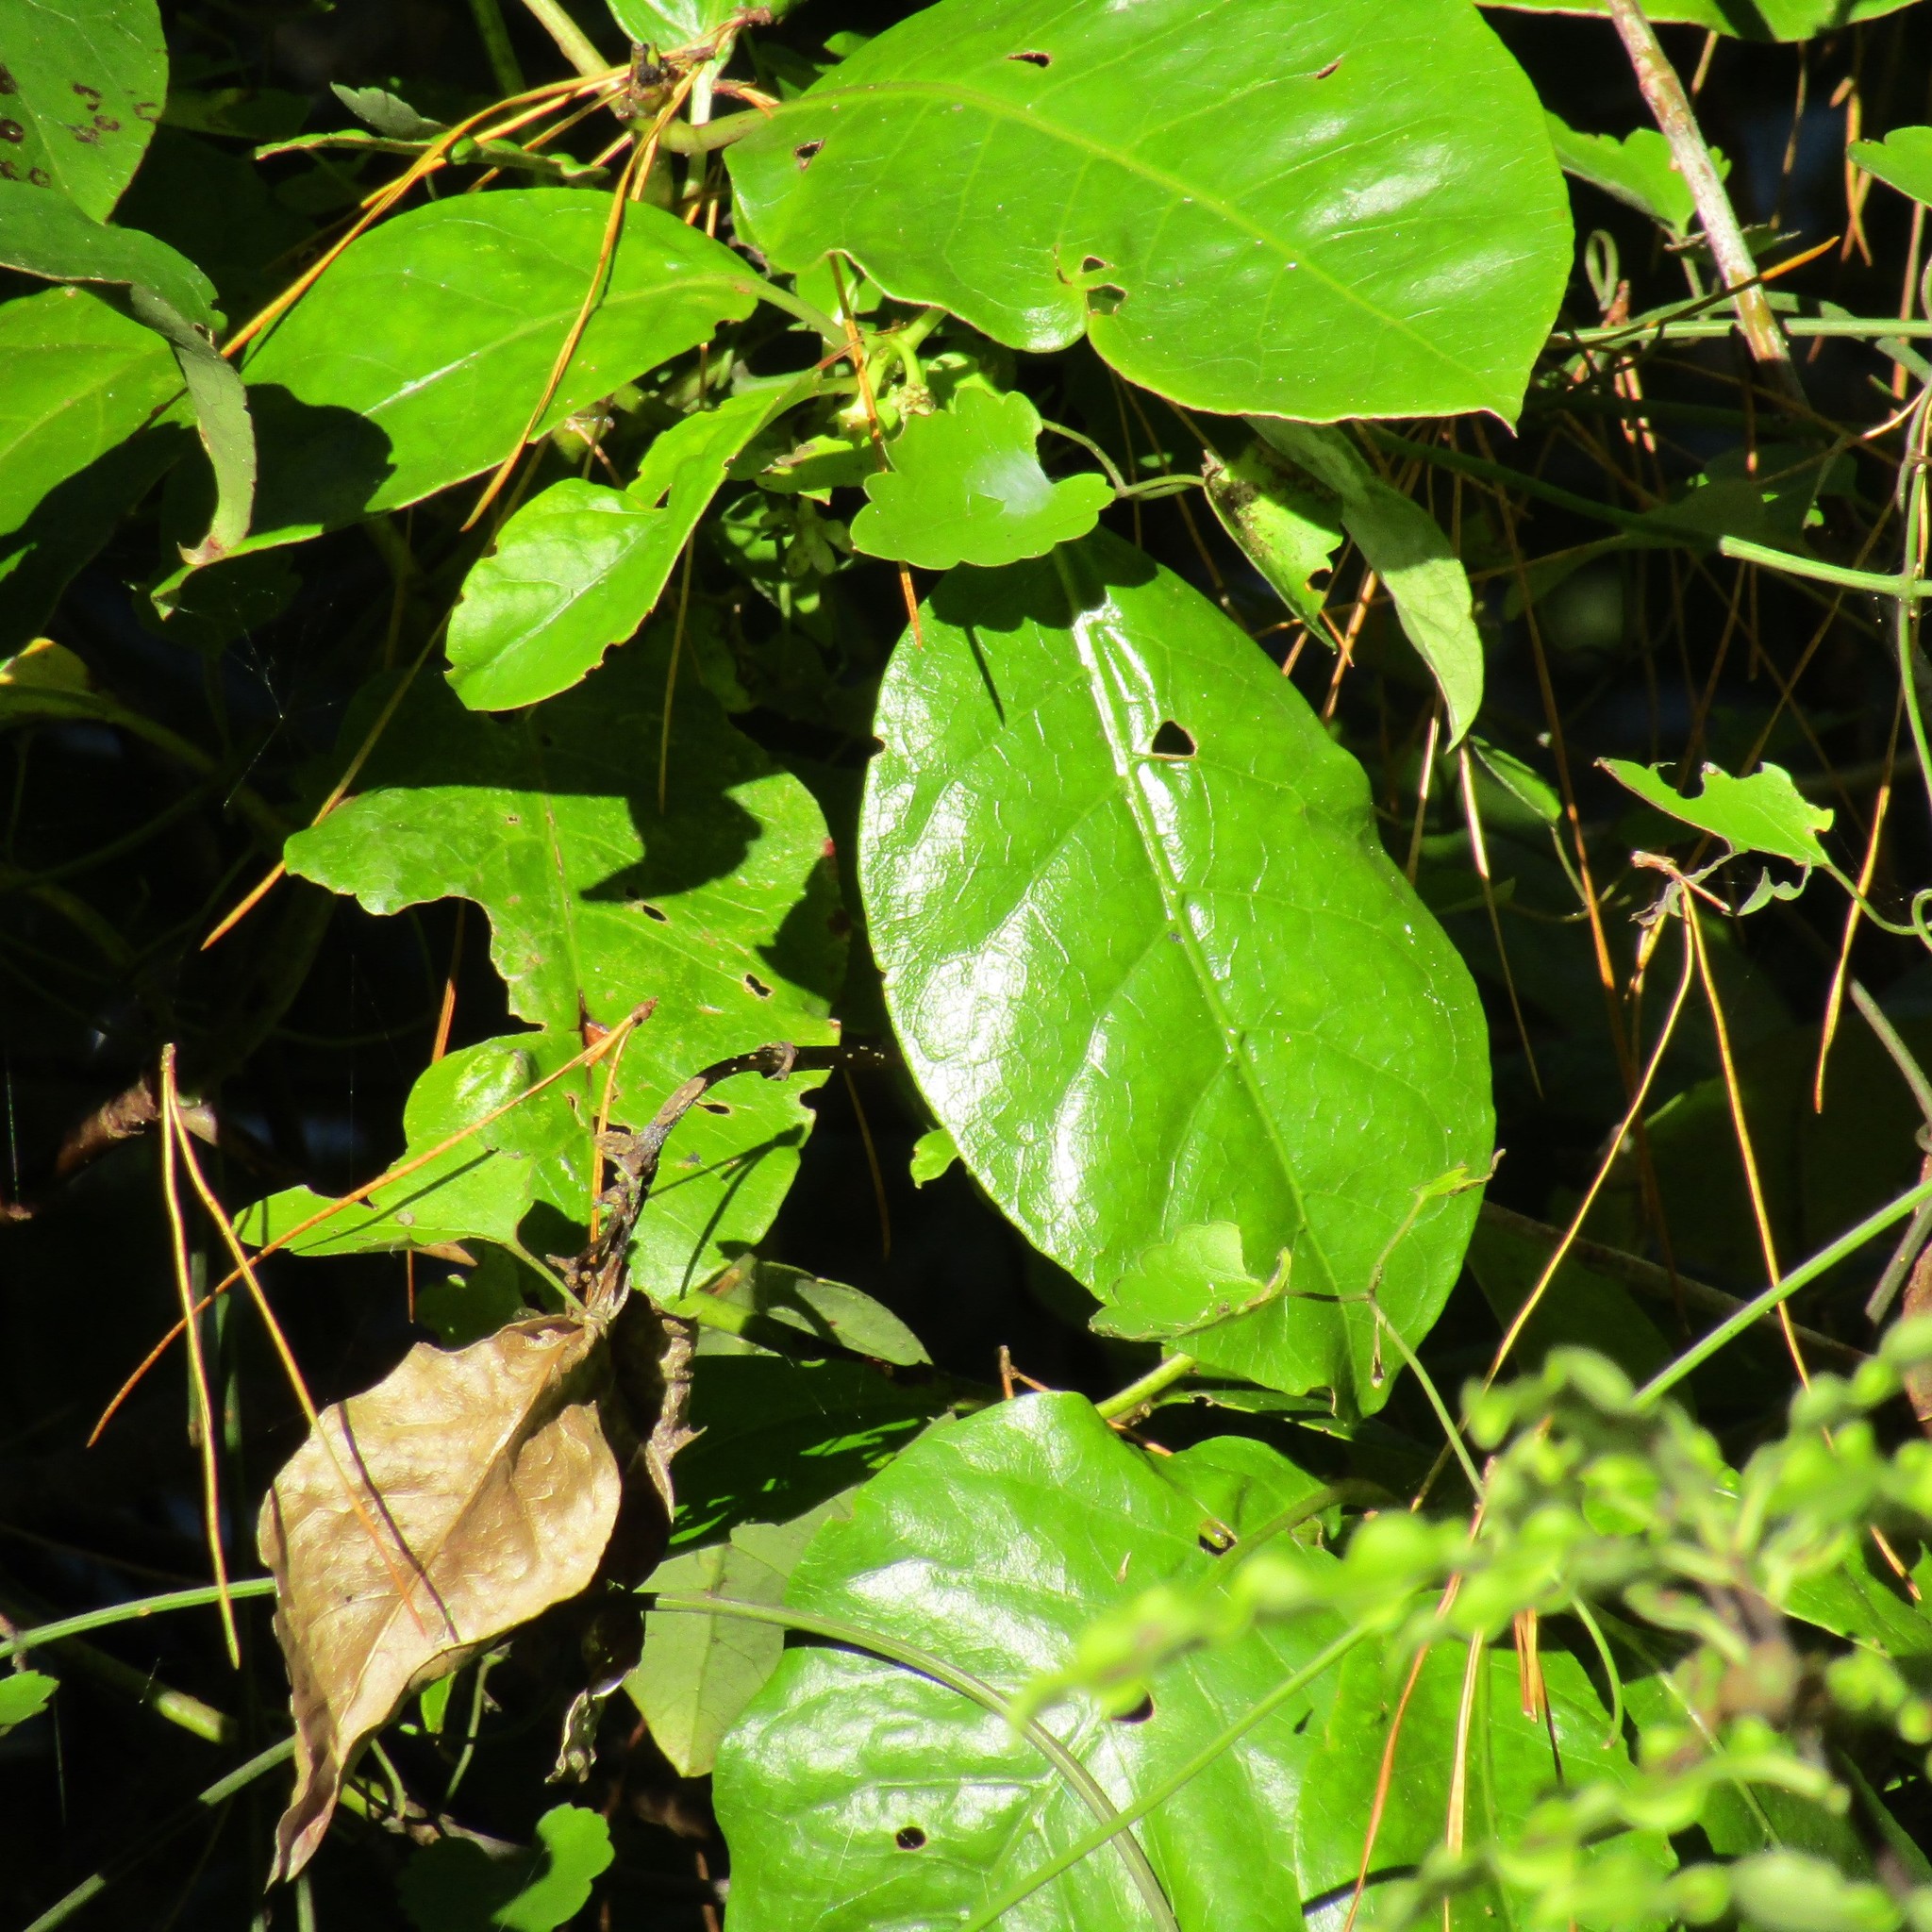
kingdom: Plantae
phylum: Tracheophyta
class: Magnoliopsida
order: Gentianales
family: Rubiaceae
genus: Coprosma
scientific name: Coprosma autumnalis
